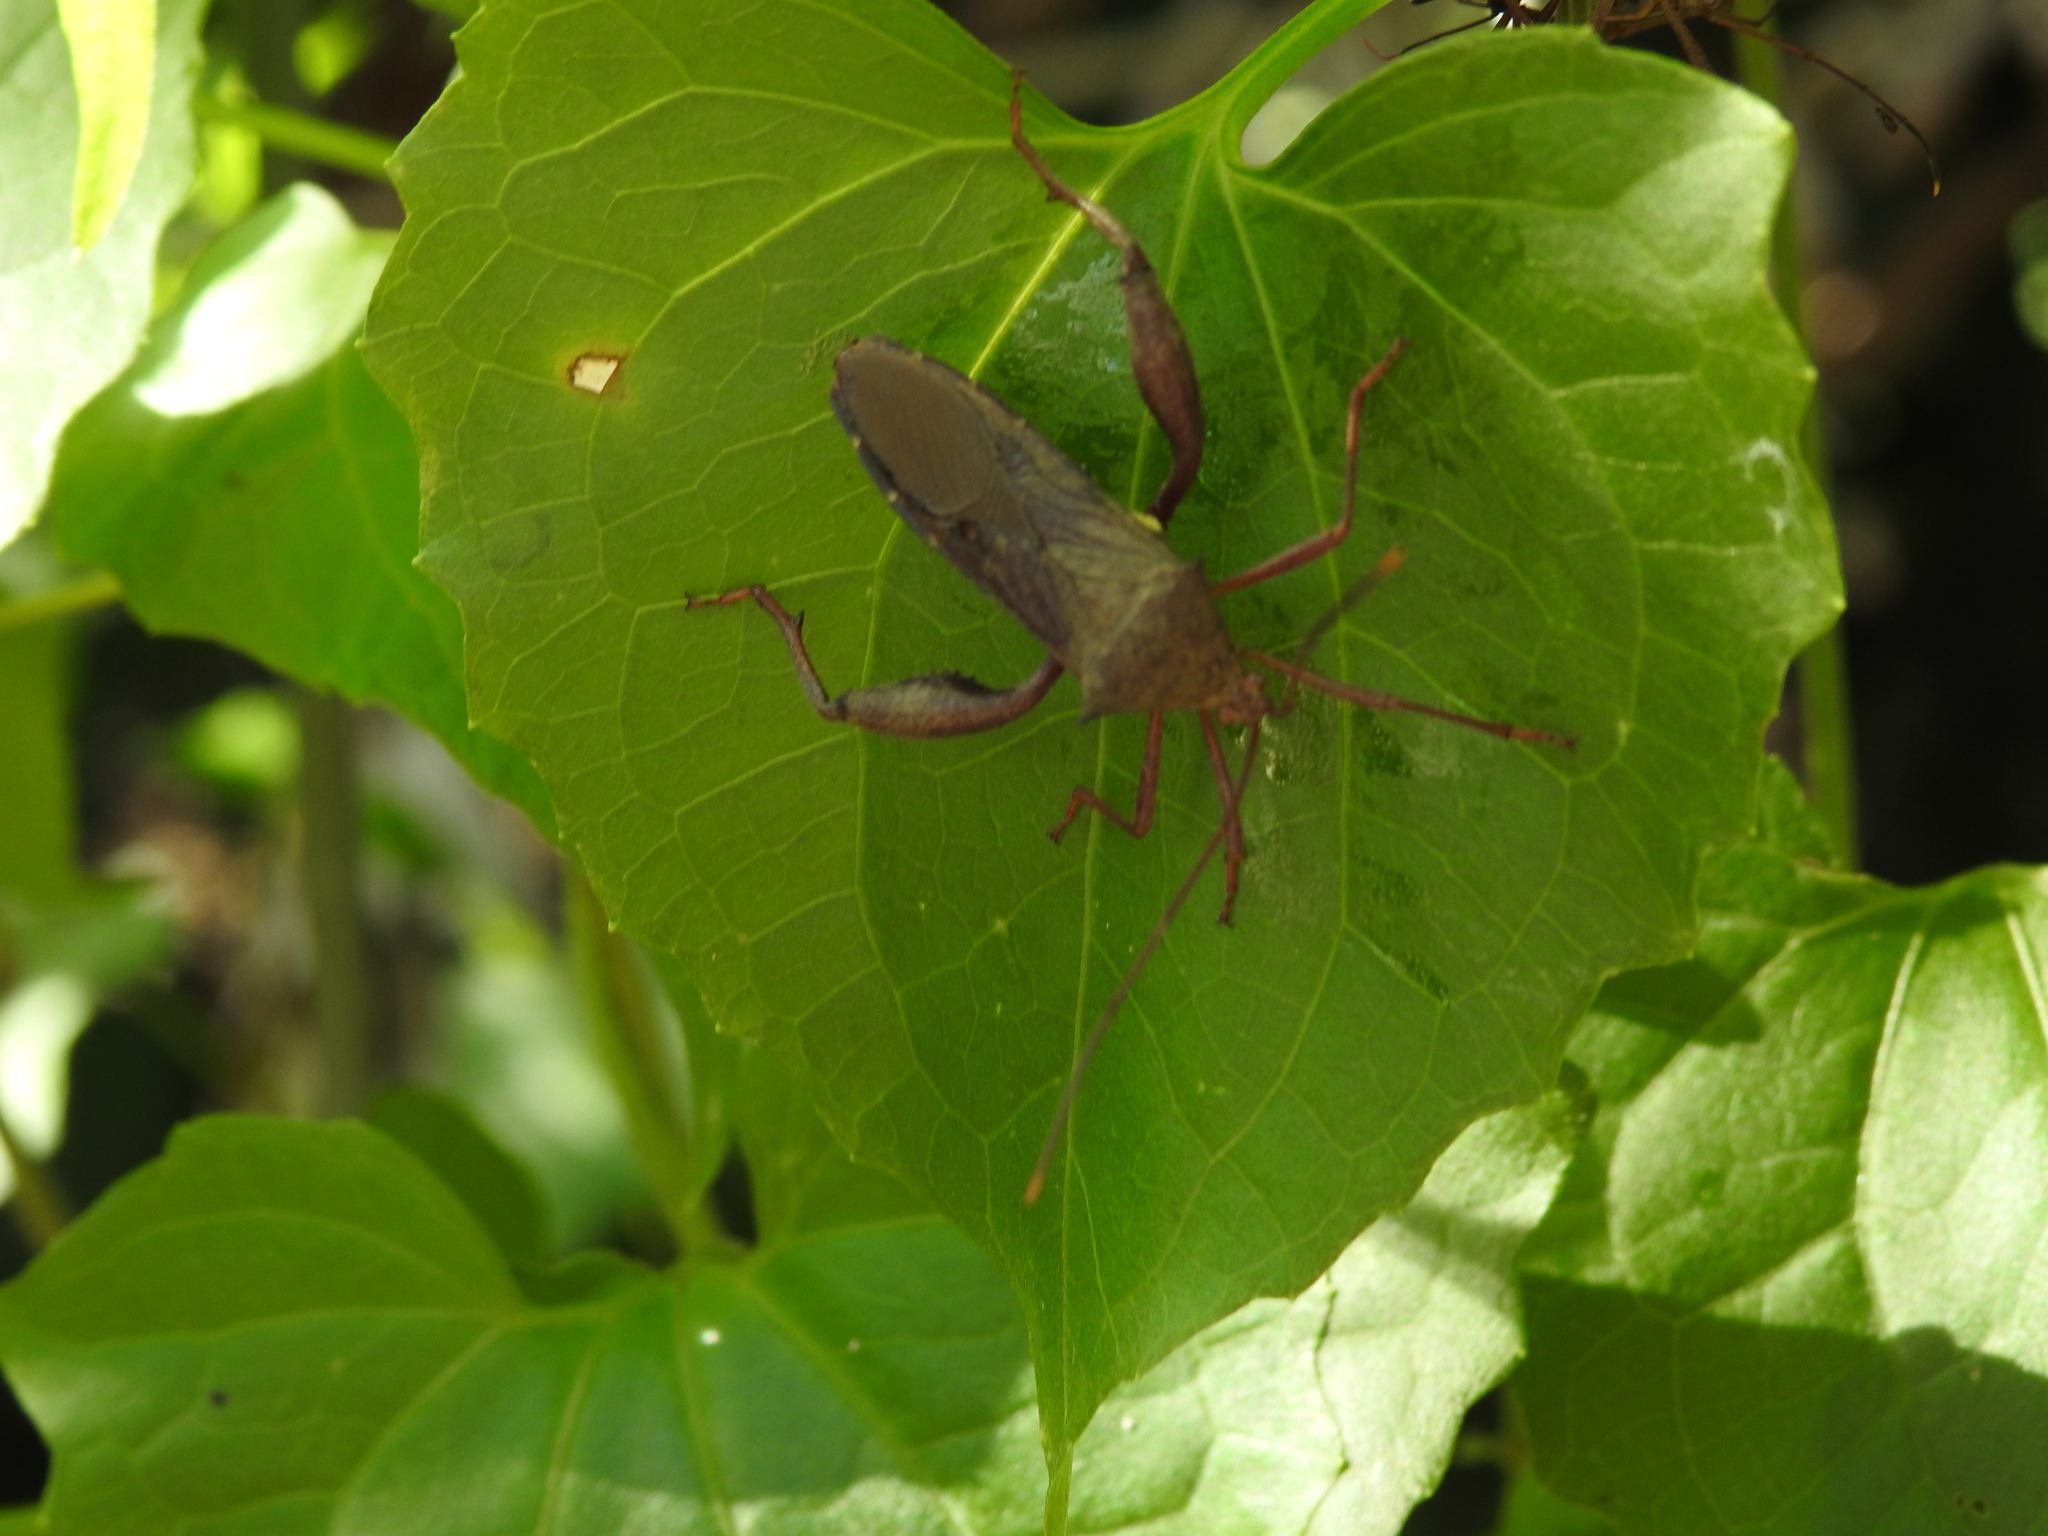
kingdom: Animalia
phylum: Arthropoda
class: Insecta
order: Hemiptera
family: Coreidae
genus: Mictis
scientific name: Mictis longicornis
